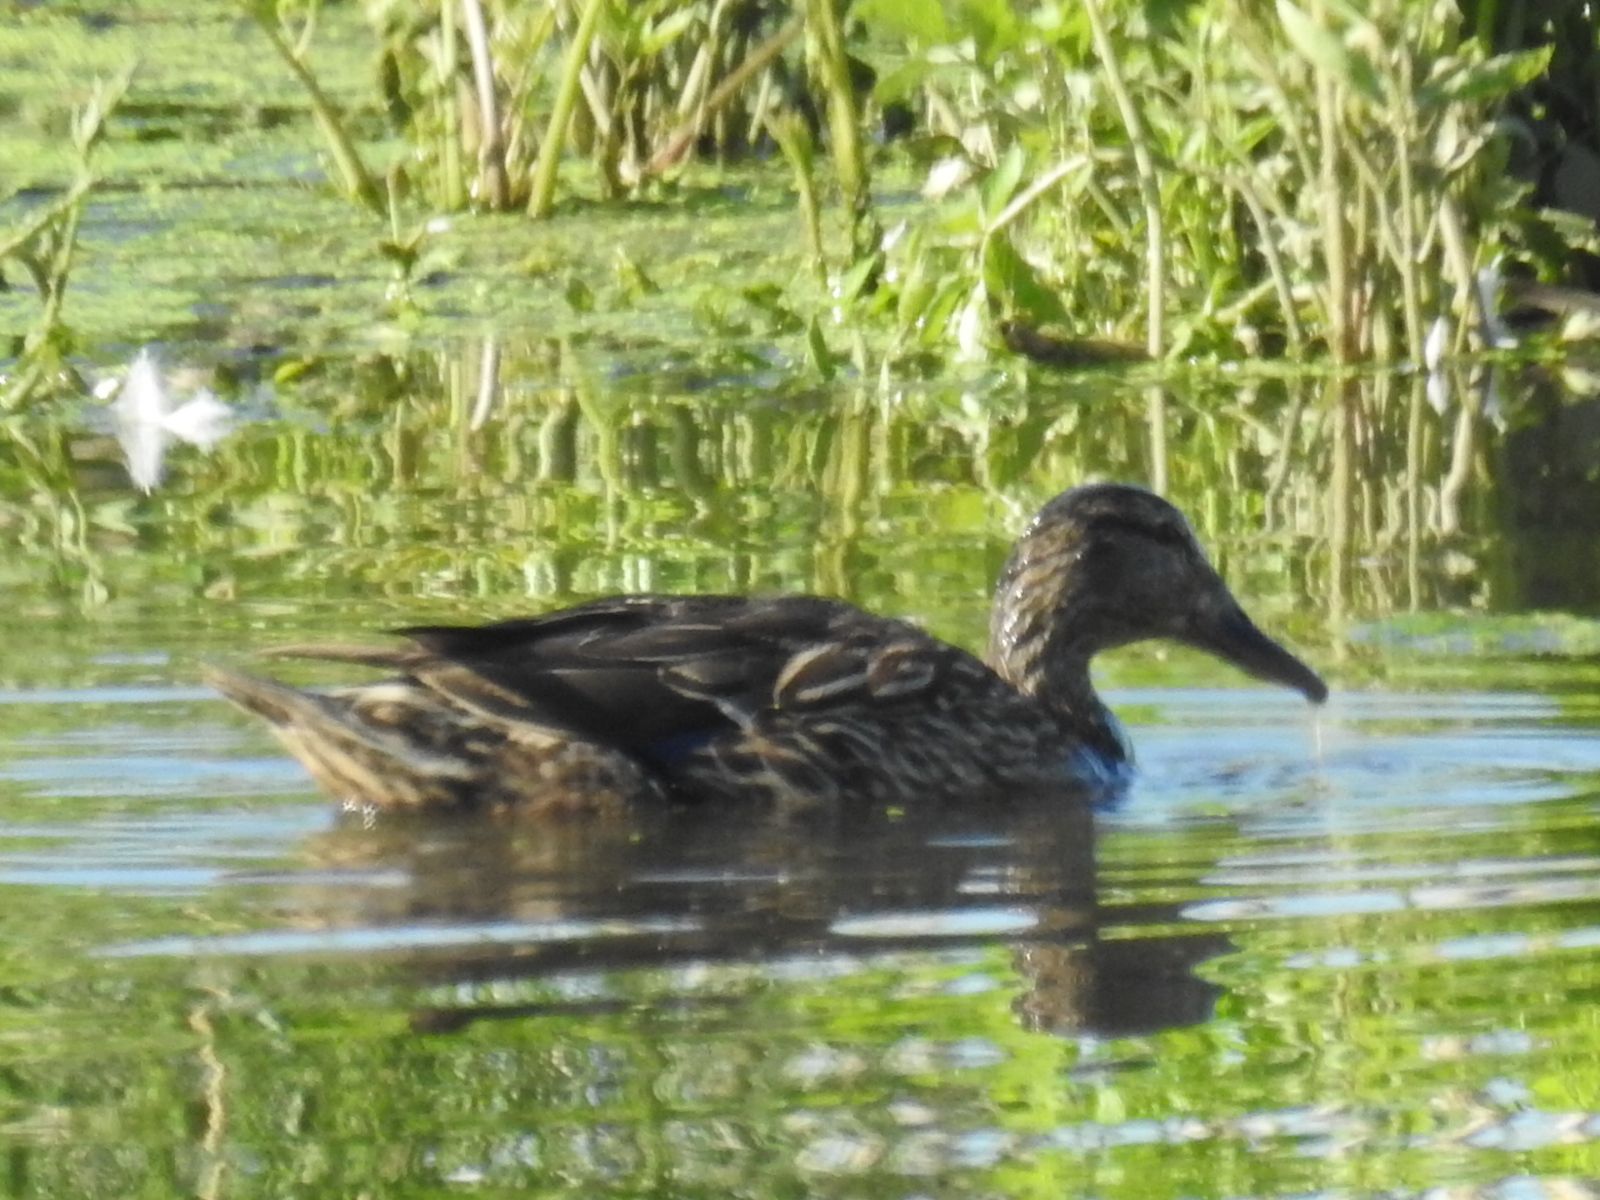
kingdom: Animalia
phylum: Chordata
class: Aves
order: Anseriformes
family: Anatidae
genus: Anas
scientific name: Anas platyrhynchos
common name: Mallard
